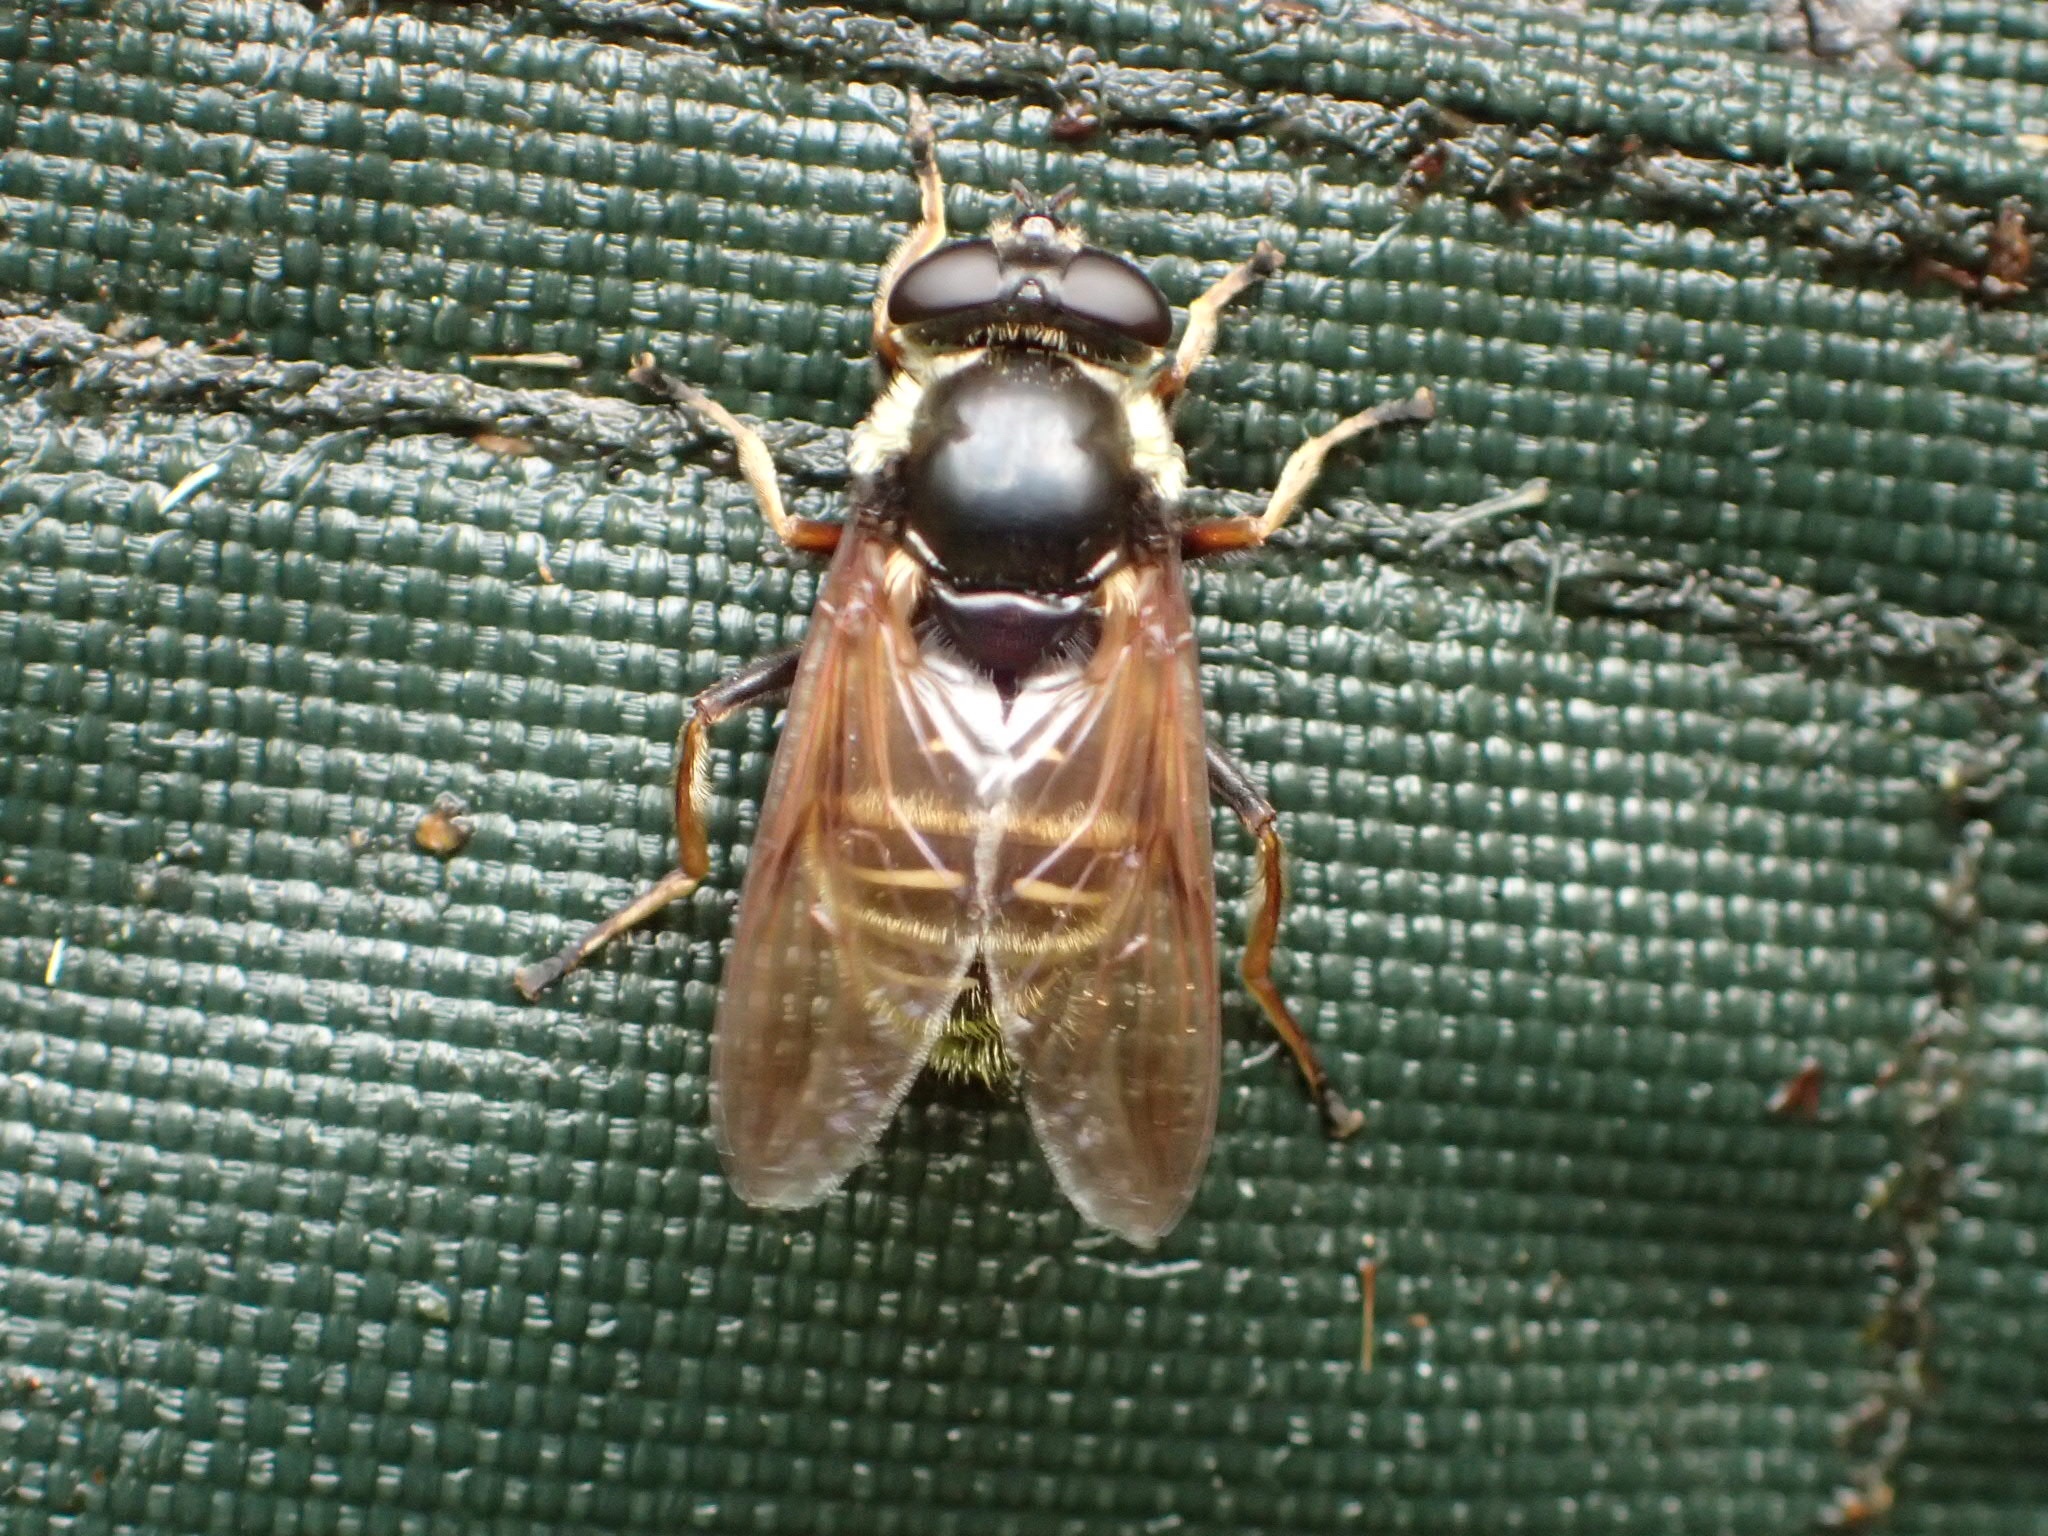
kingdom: Animalia
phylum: Arthropoda
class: Insecta
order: Diptera
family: Syrphidae
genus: Sericomyia
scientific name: Sericomyia militaris
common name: Narrow-banded pond fly
